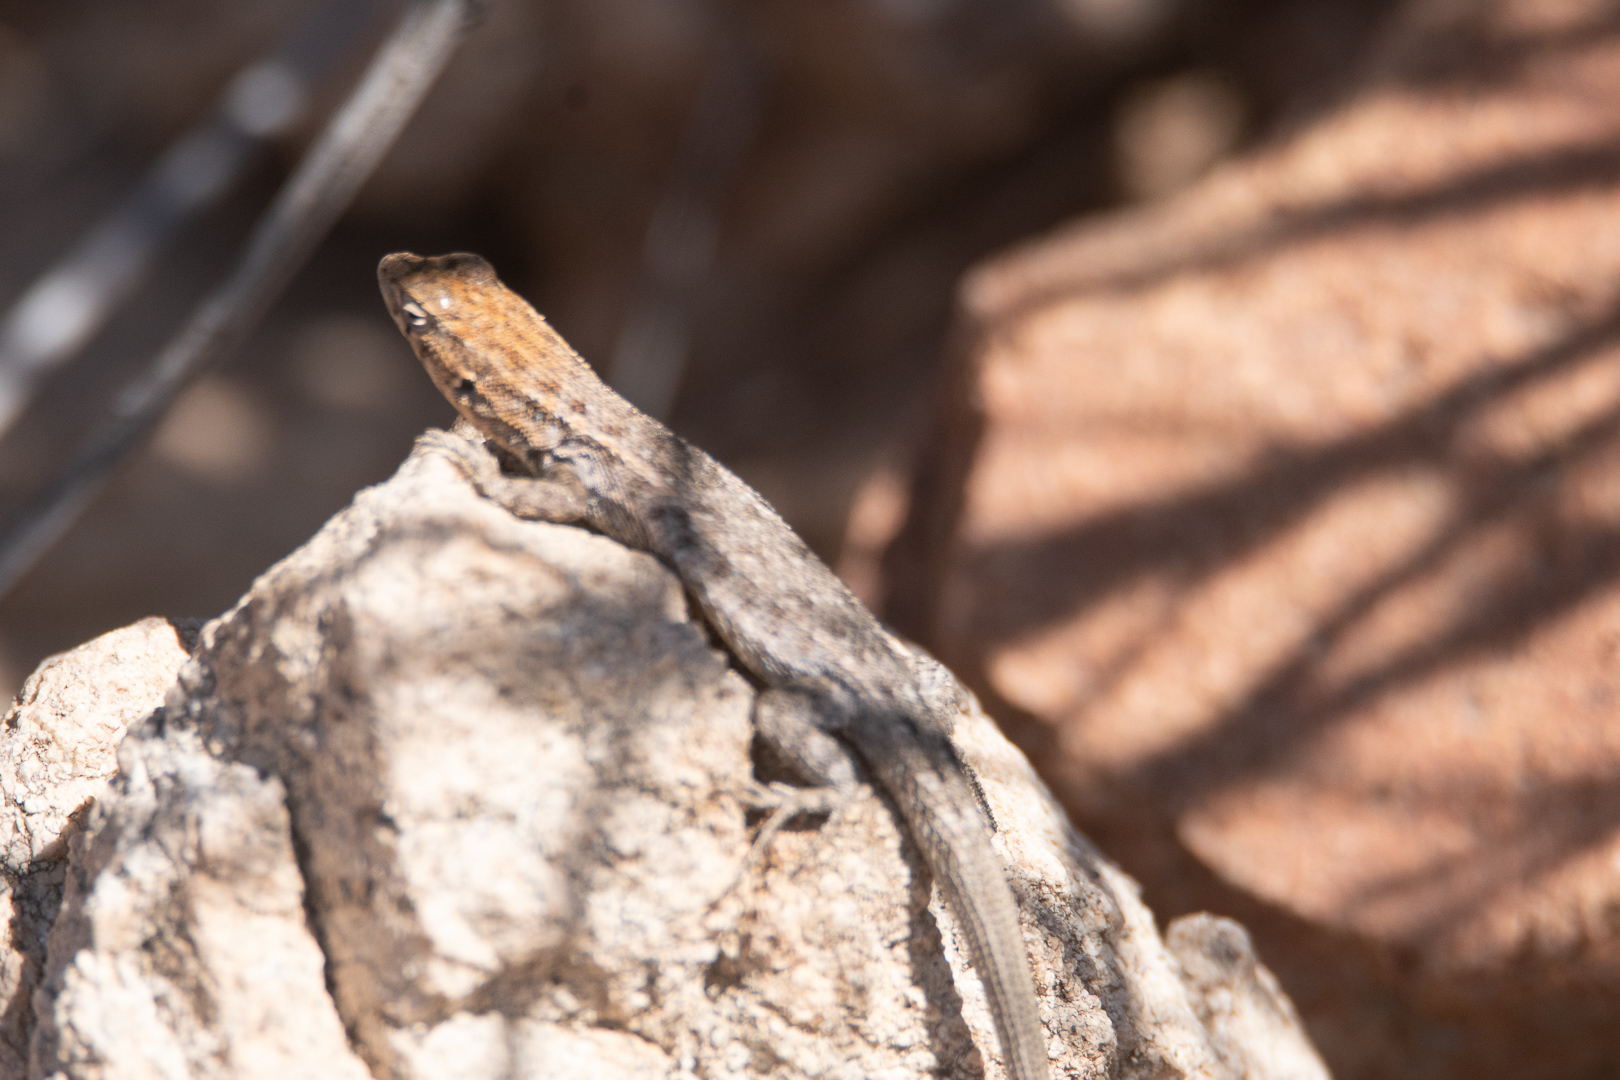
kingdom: Animalia
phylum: Chordata
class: Squamata
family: Liolaemidae
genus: Liolaemus
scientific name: Liolaemus platei
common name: Braided tree iguana
